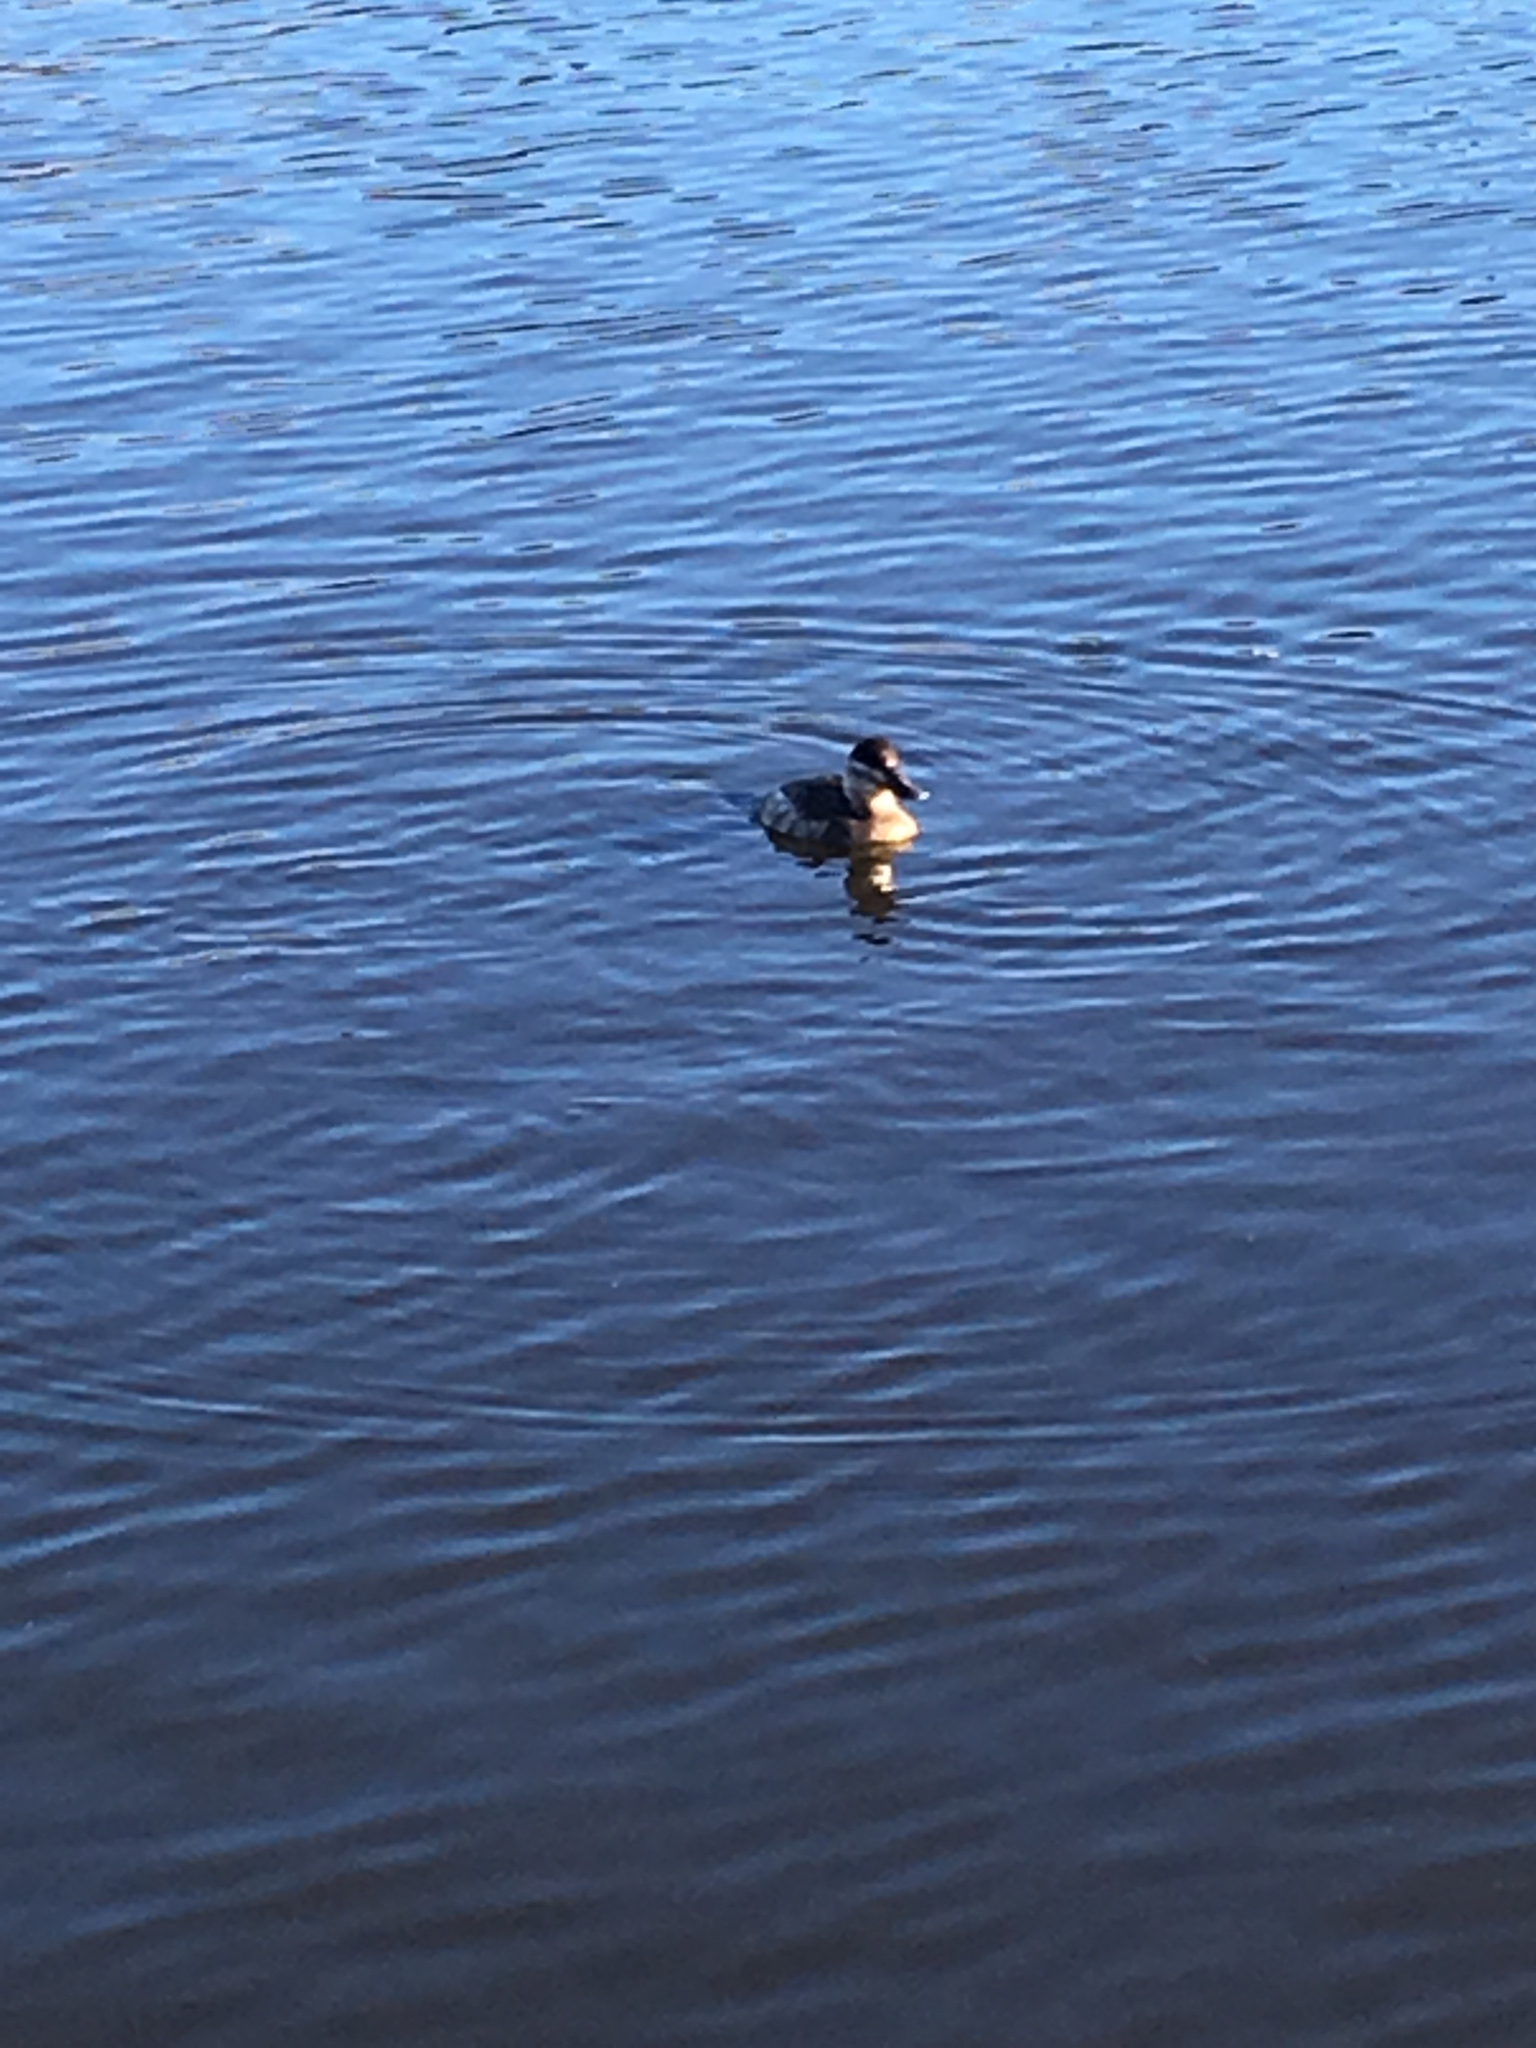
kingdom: Animalia
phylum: Chordata
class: Aves
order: Anseriformes
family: Anatidae
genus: Oxyura
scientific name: Oxyura jamaicensis
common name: Ruddy duck
